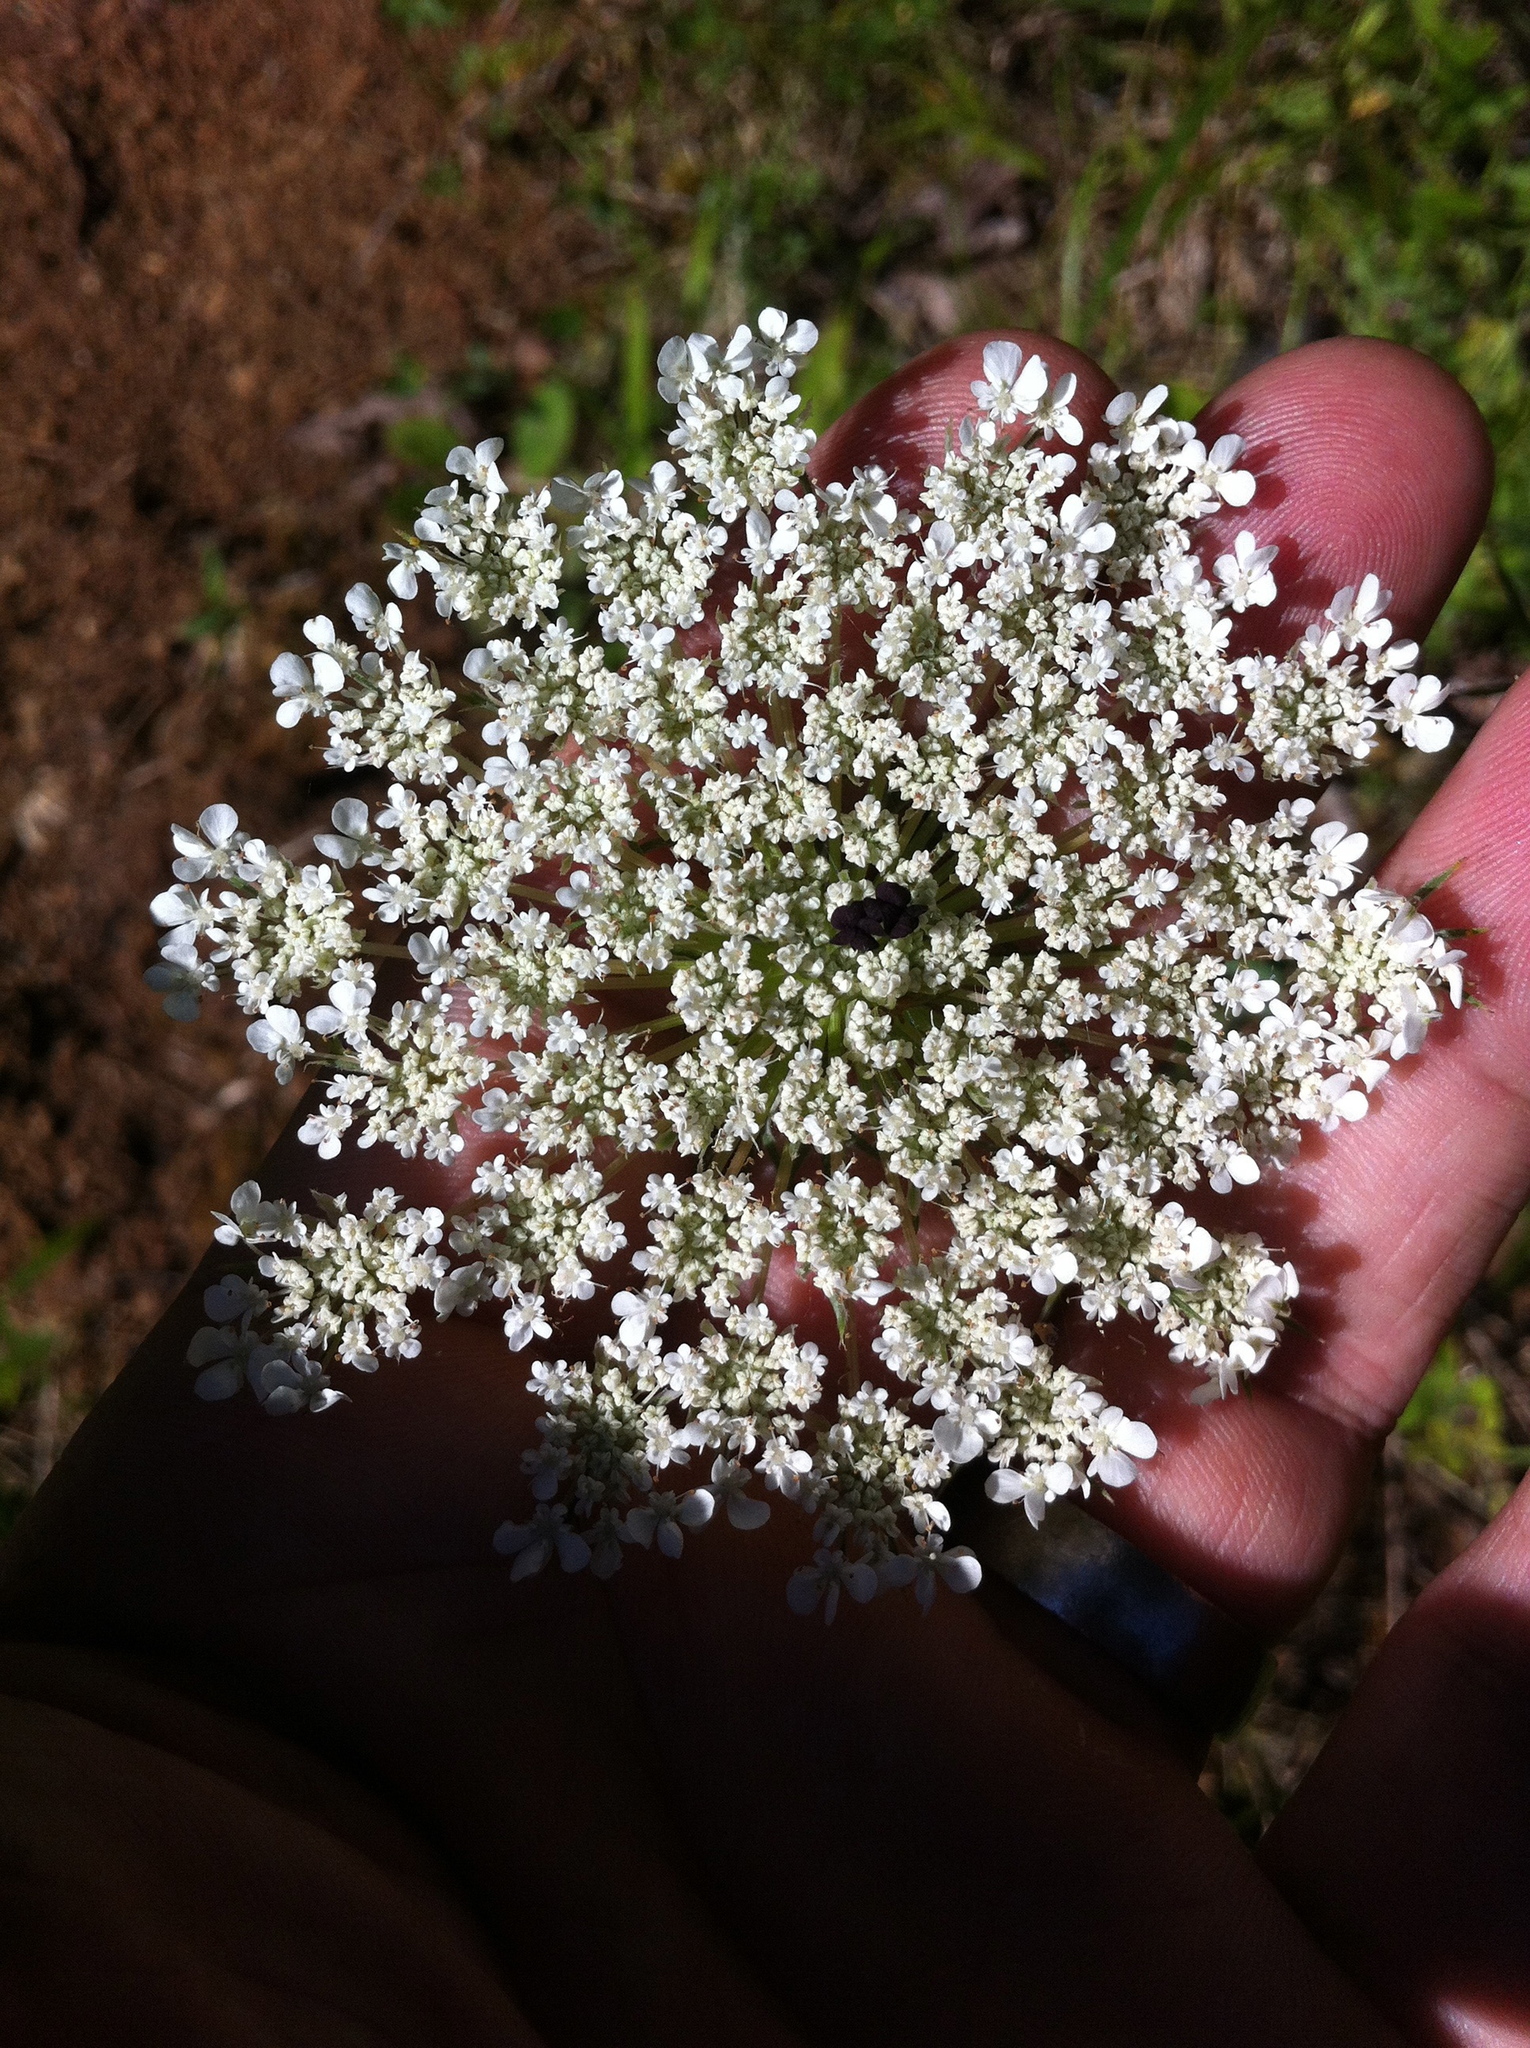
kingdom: Plantae
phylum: Tracheophyta
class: Magnoliopsida
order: Apiales
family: Apiaceae
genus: Daucus
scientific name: Daucus carota
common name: Wild carrot
